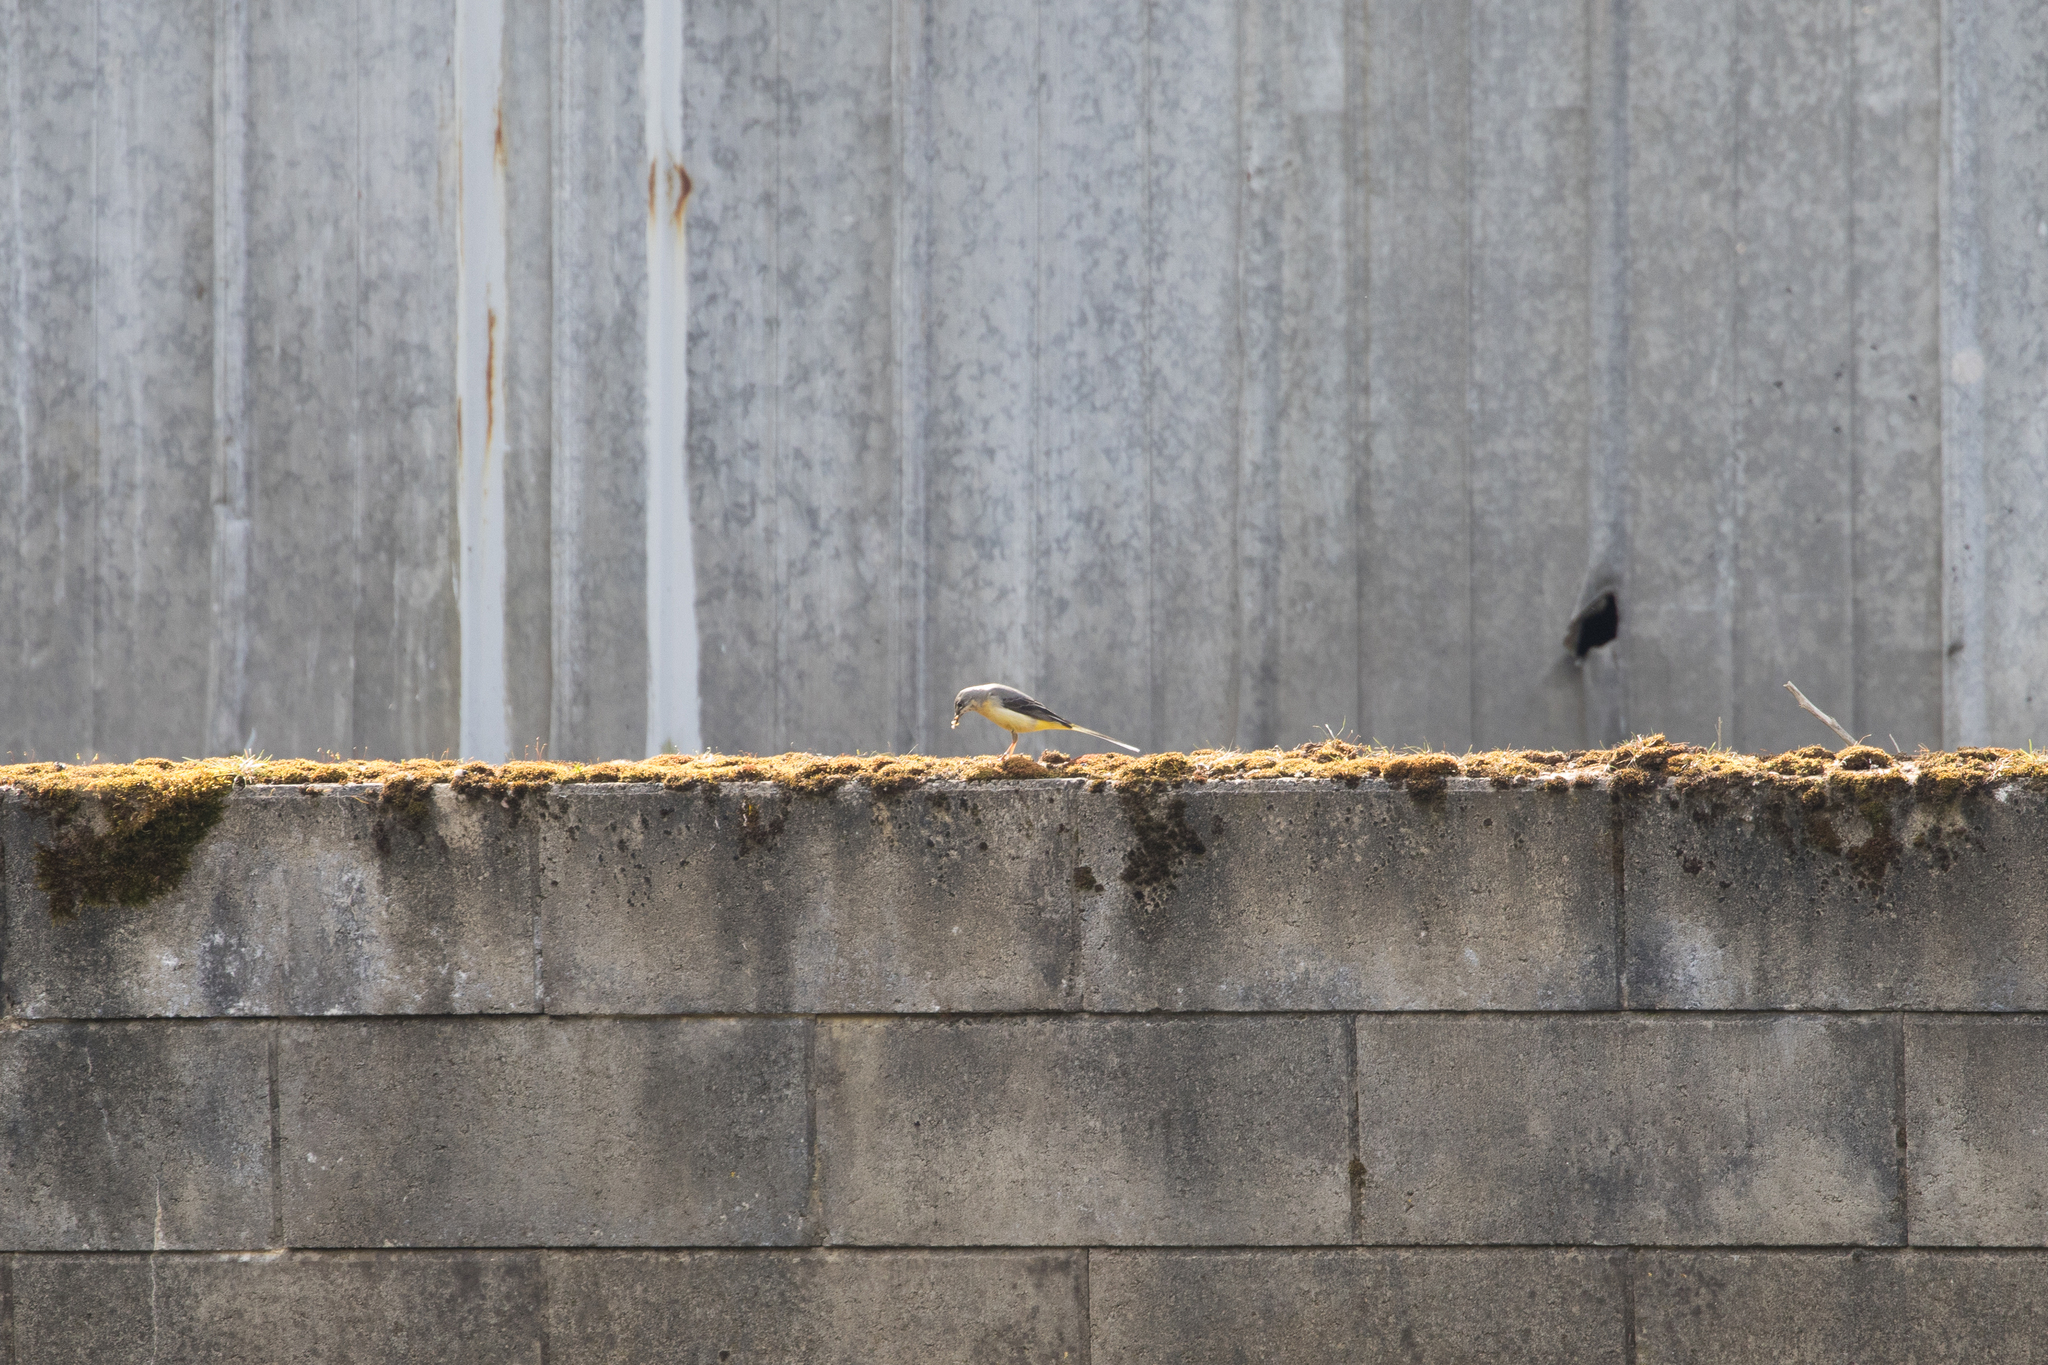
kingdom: Animalia
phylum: Chordata
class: Aves
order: Passeriformes
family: Motacillidae
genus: Motacilla
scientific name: Motacilla cinerea
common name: Grey wagtail
